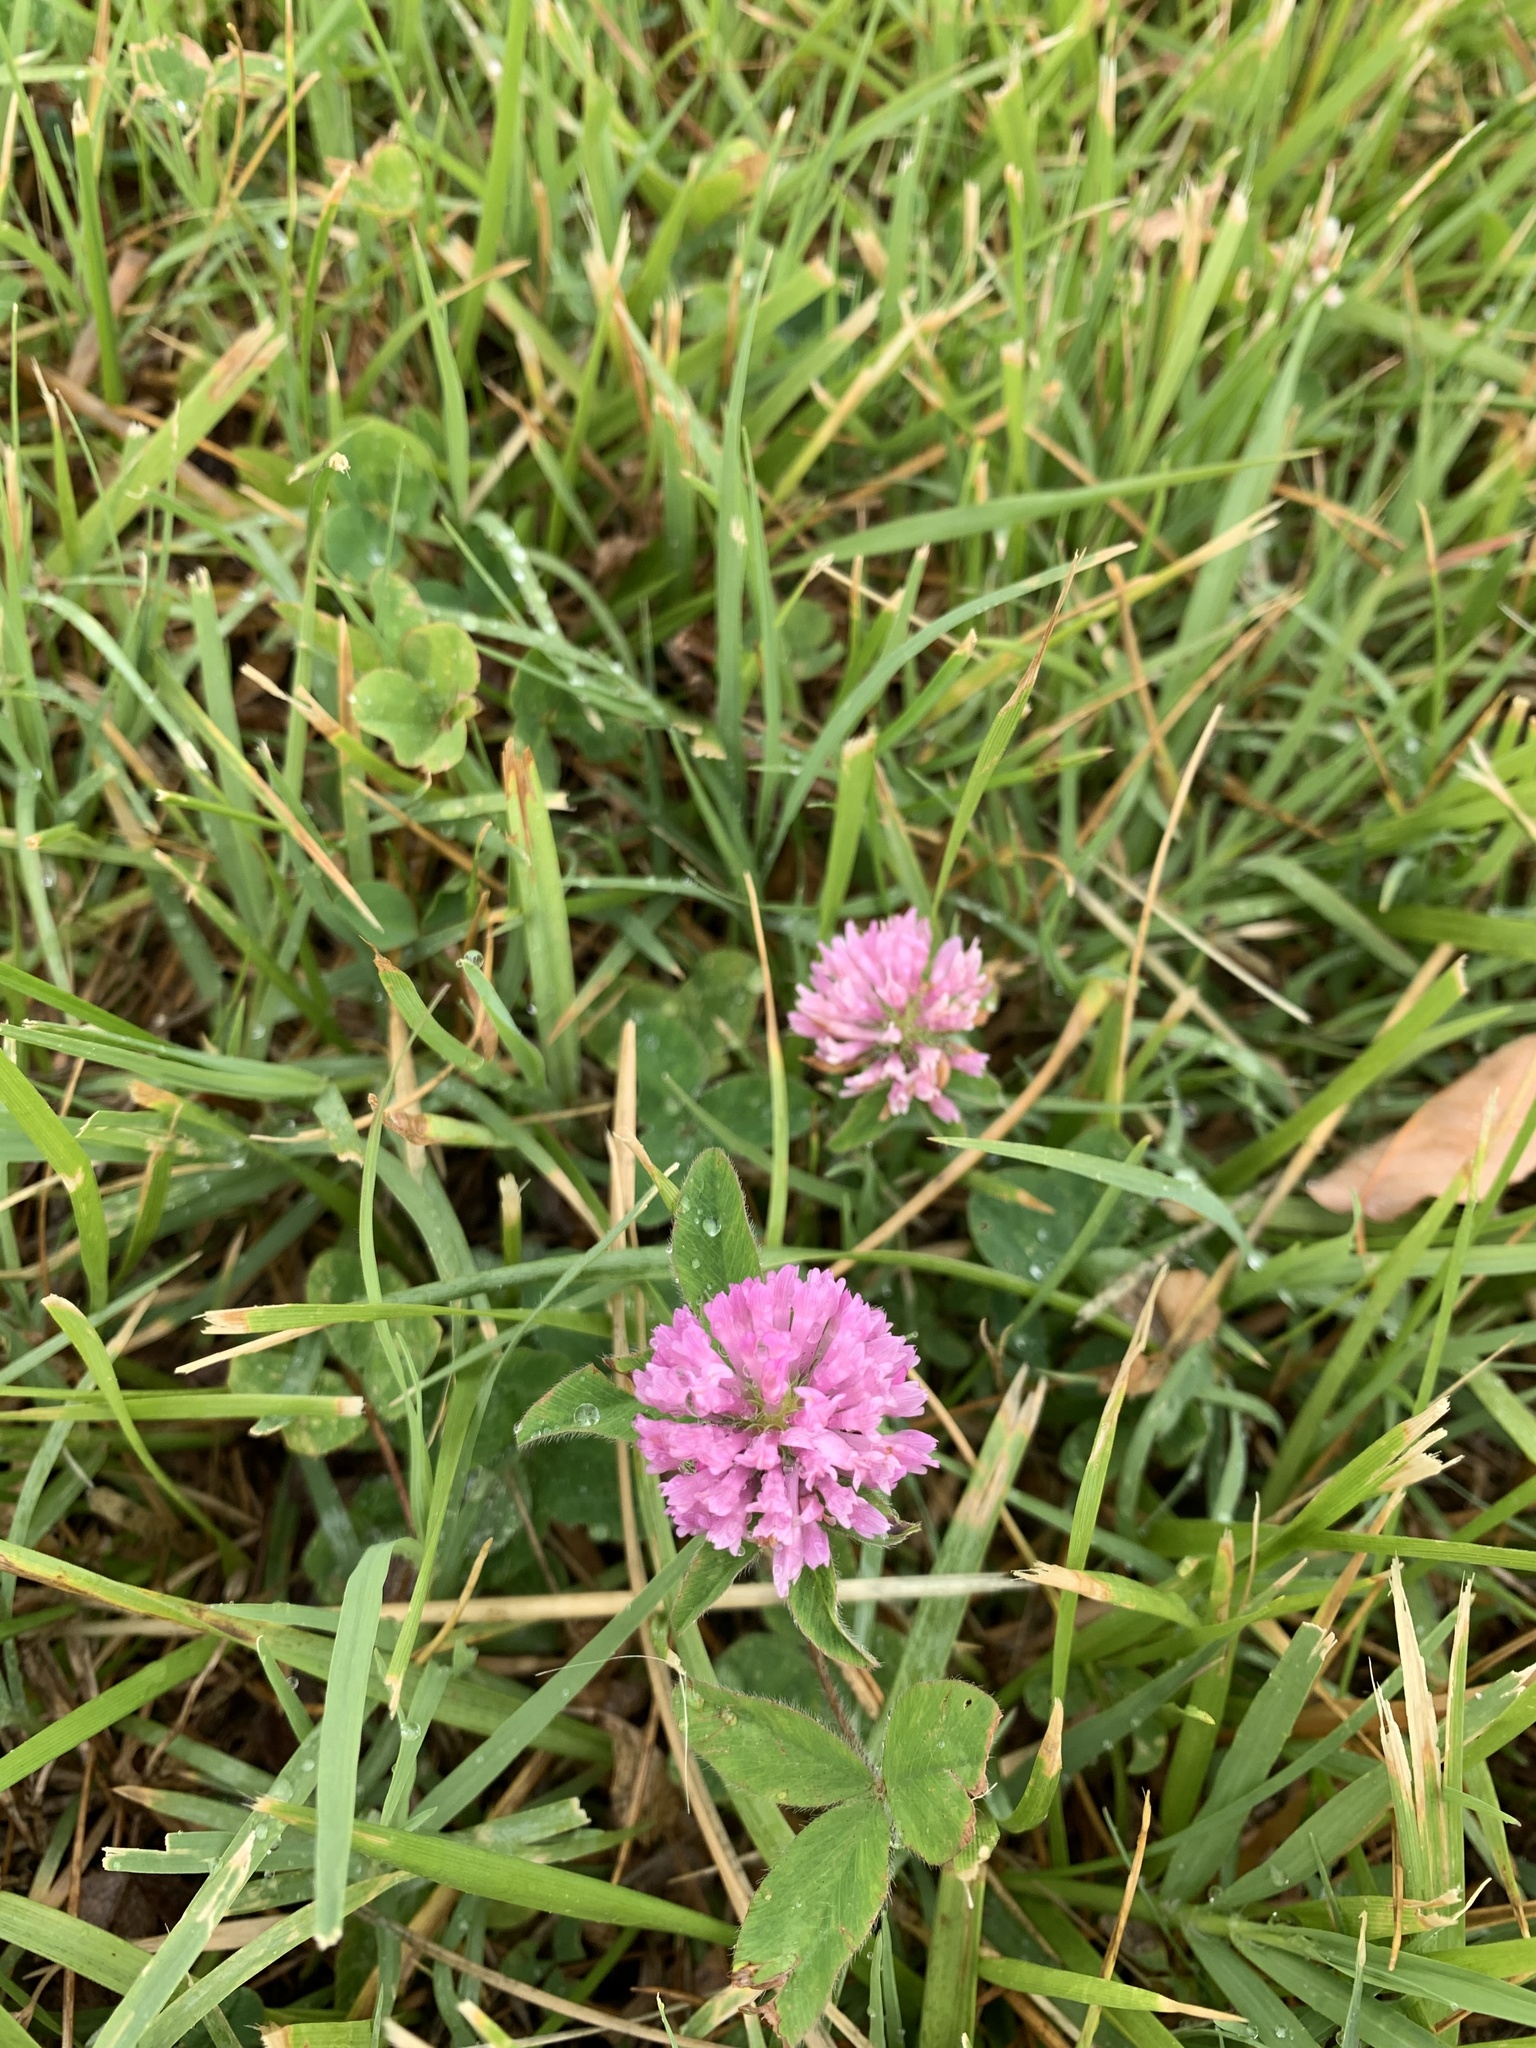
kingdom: Plantae
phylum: Tracheophyta
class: Magnoliopsida
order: Fabales
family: Fabaceae
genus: Trifolium
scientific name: Trifolium pratense
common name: Red clover
